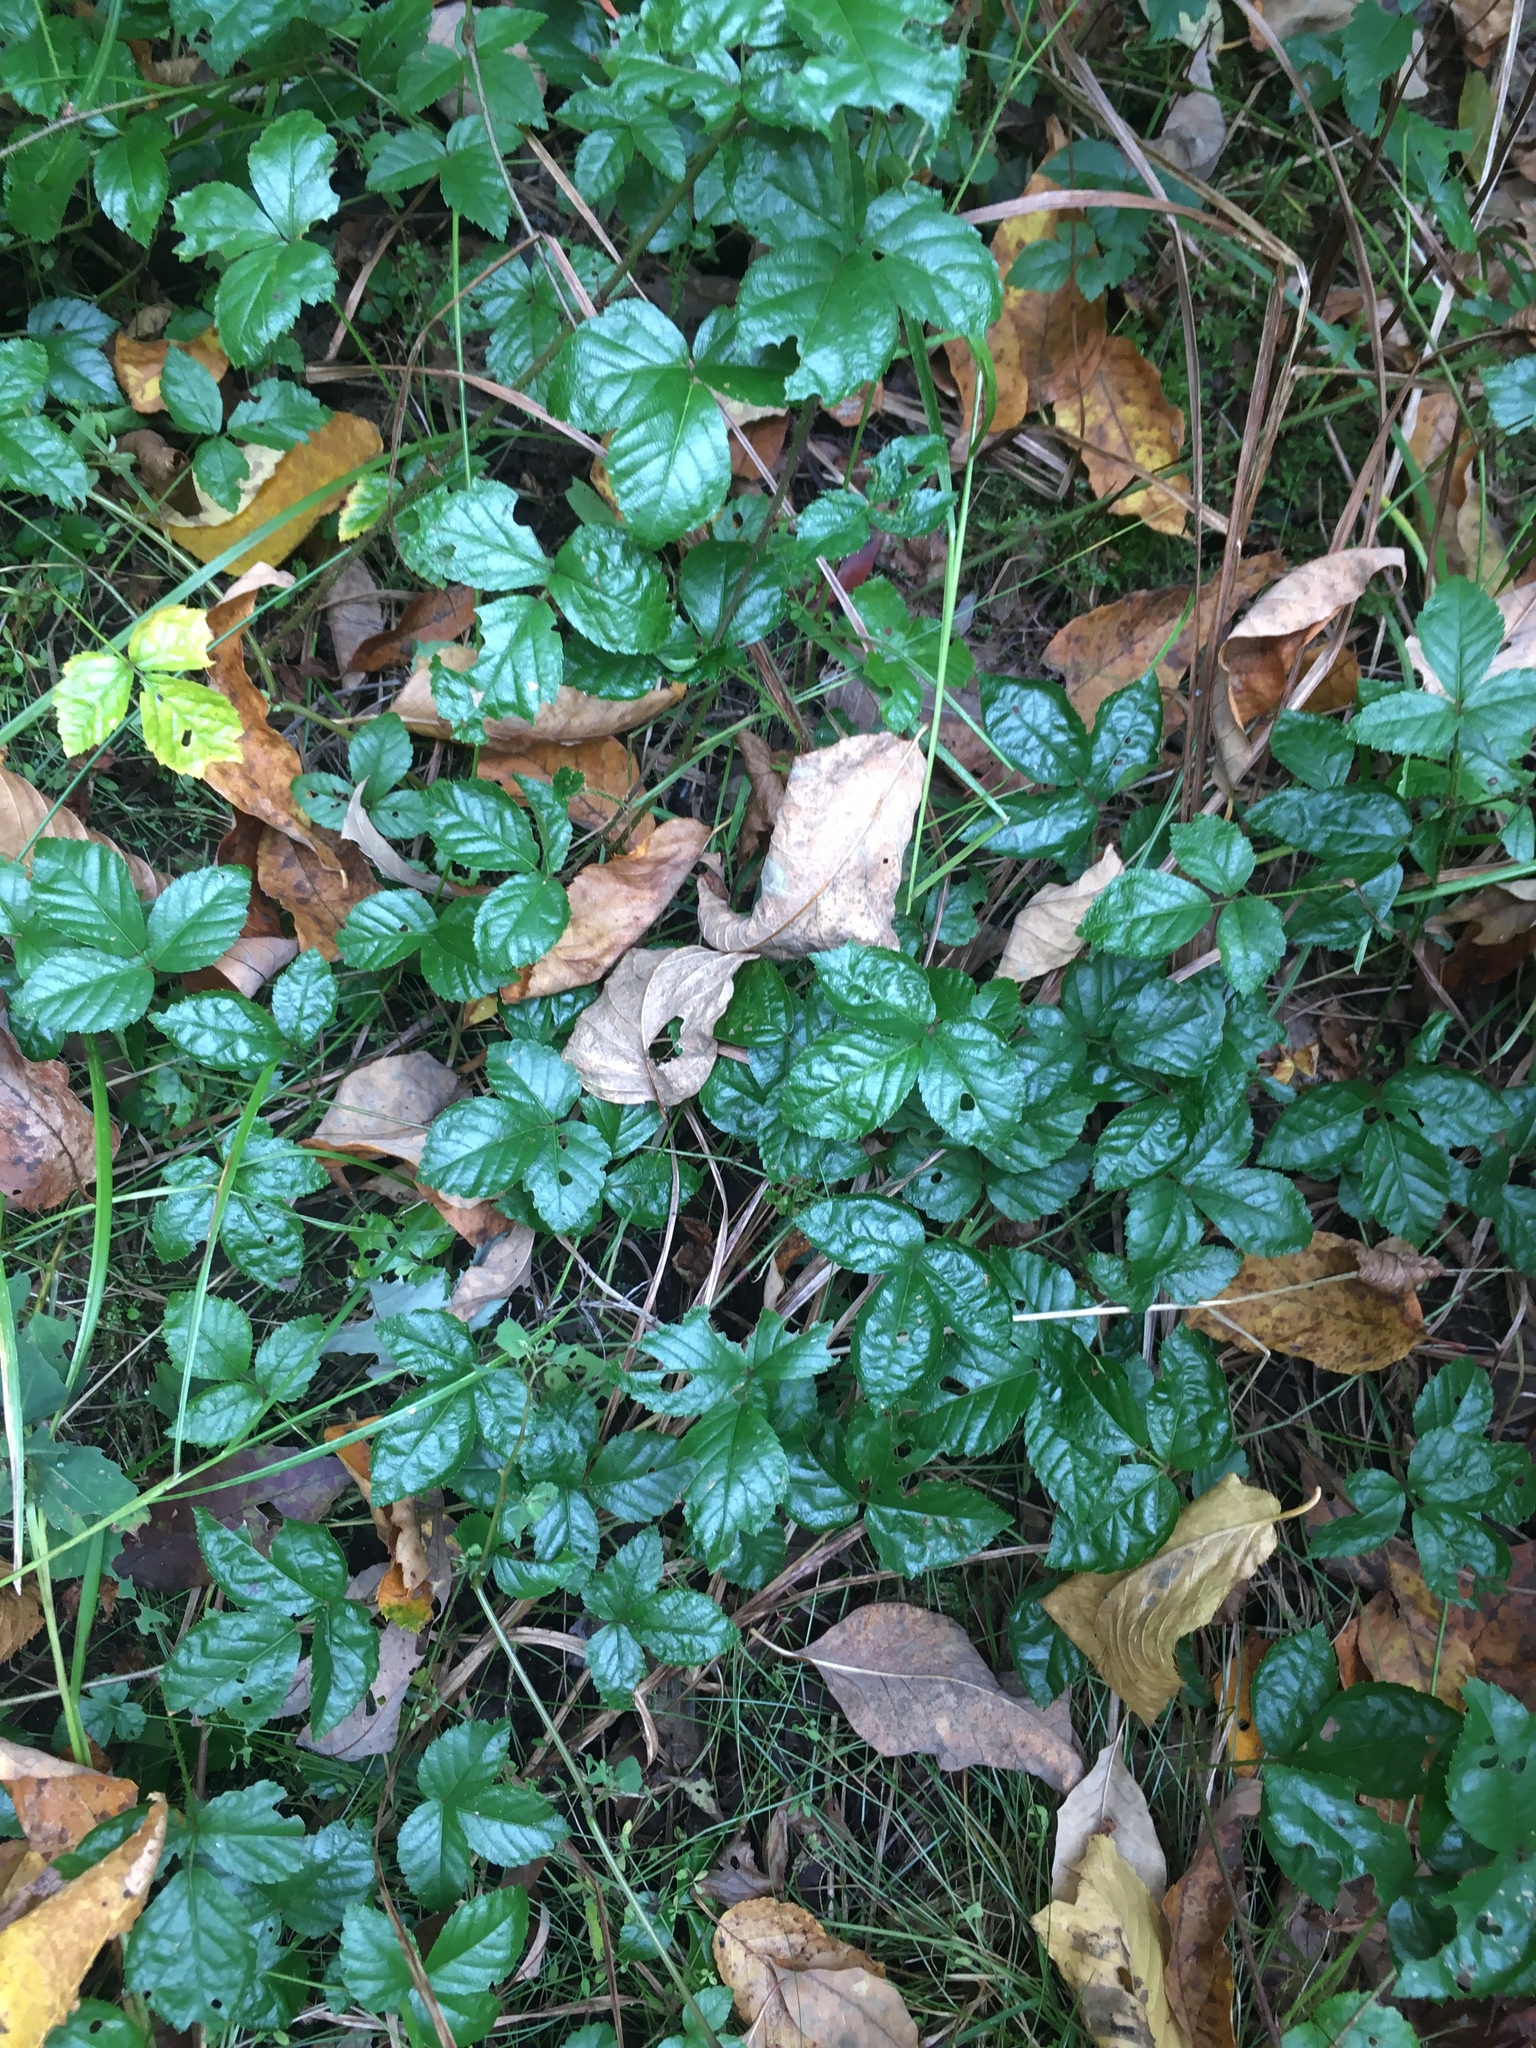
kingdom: Plantae
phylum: Tracheophyta
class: Magnoliopsida
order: Rosales
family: Rosaceae
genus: Rubus
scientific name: Rubus hispidus
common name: Running blackberry
